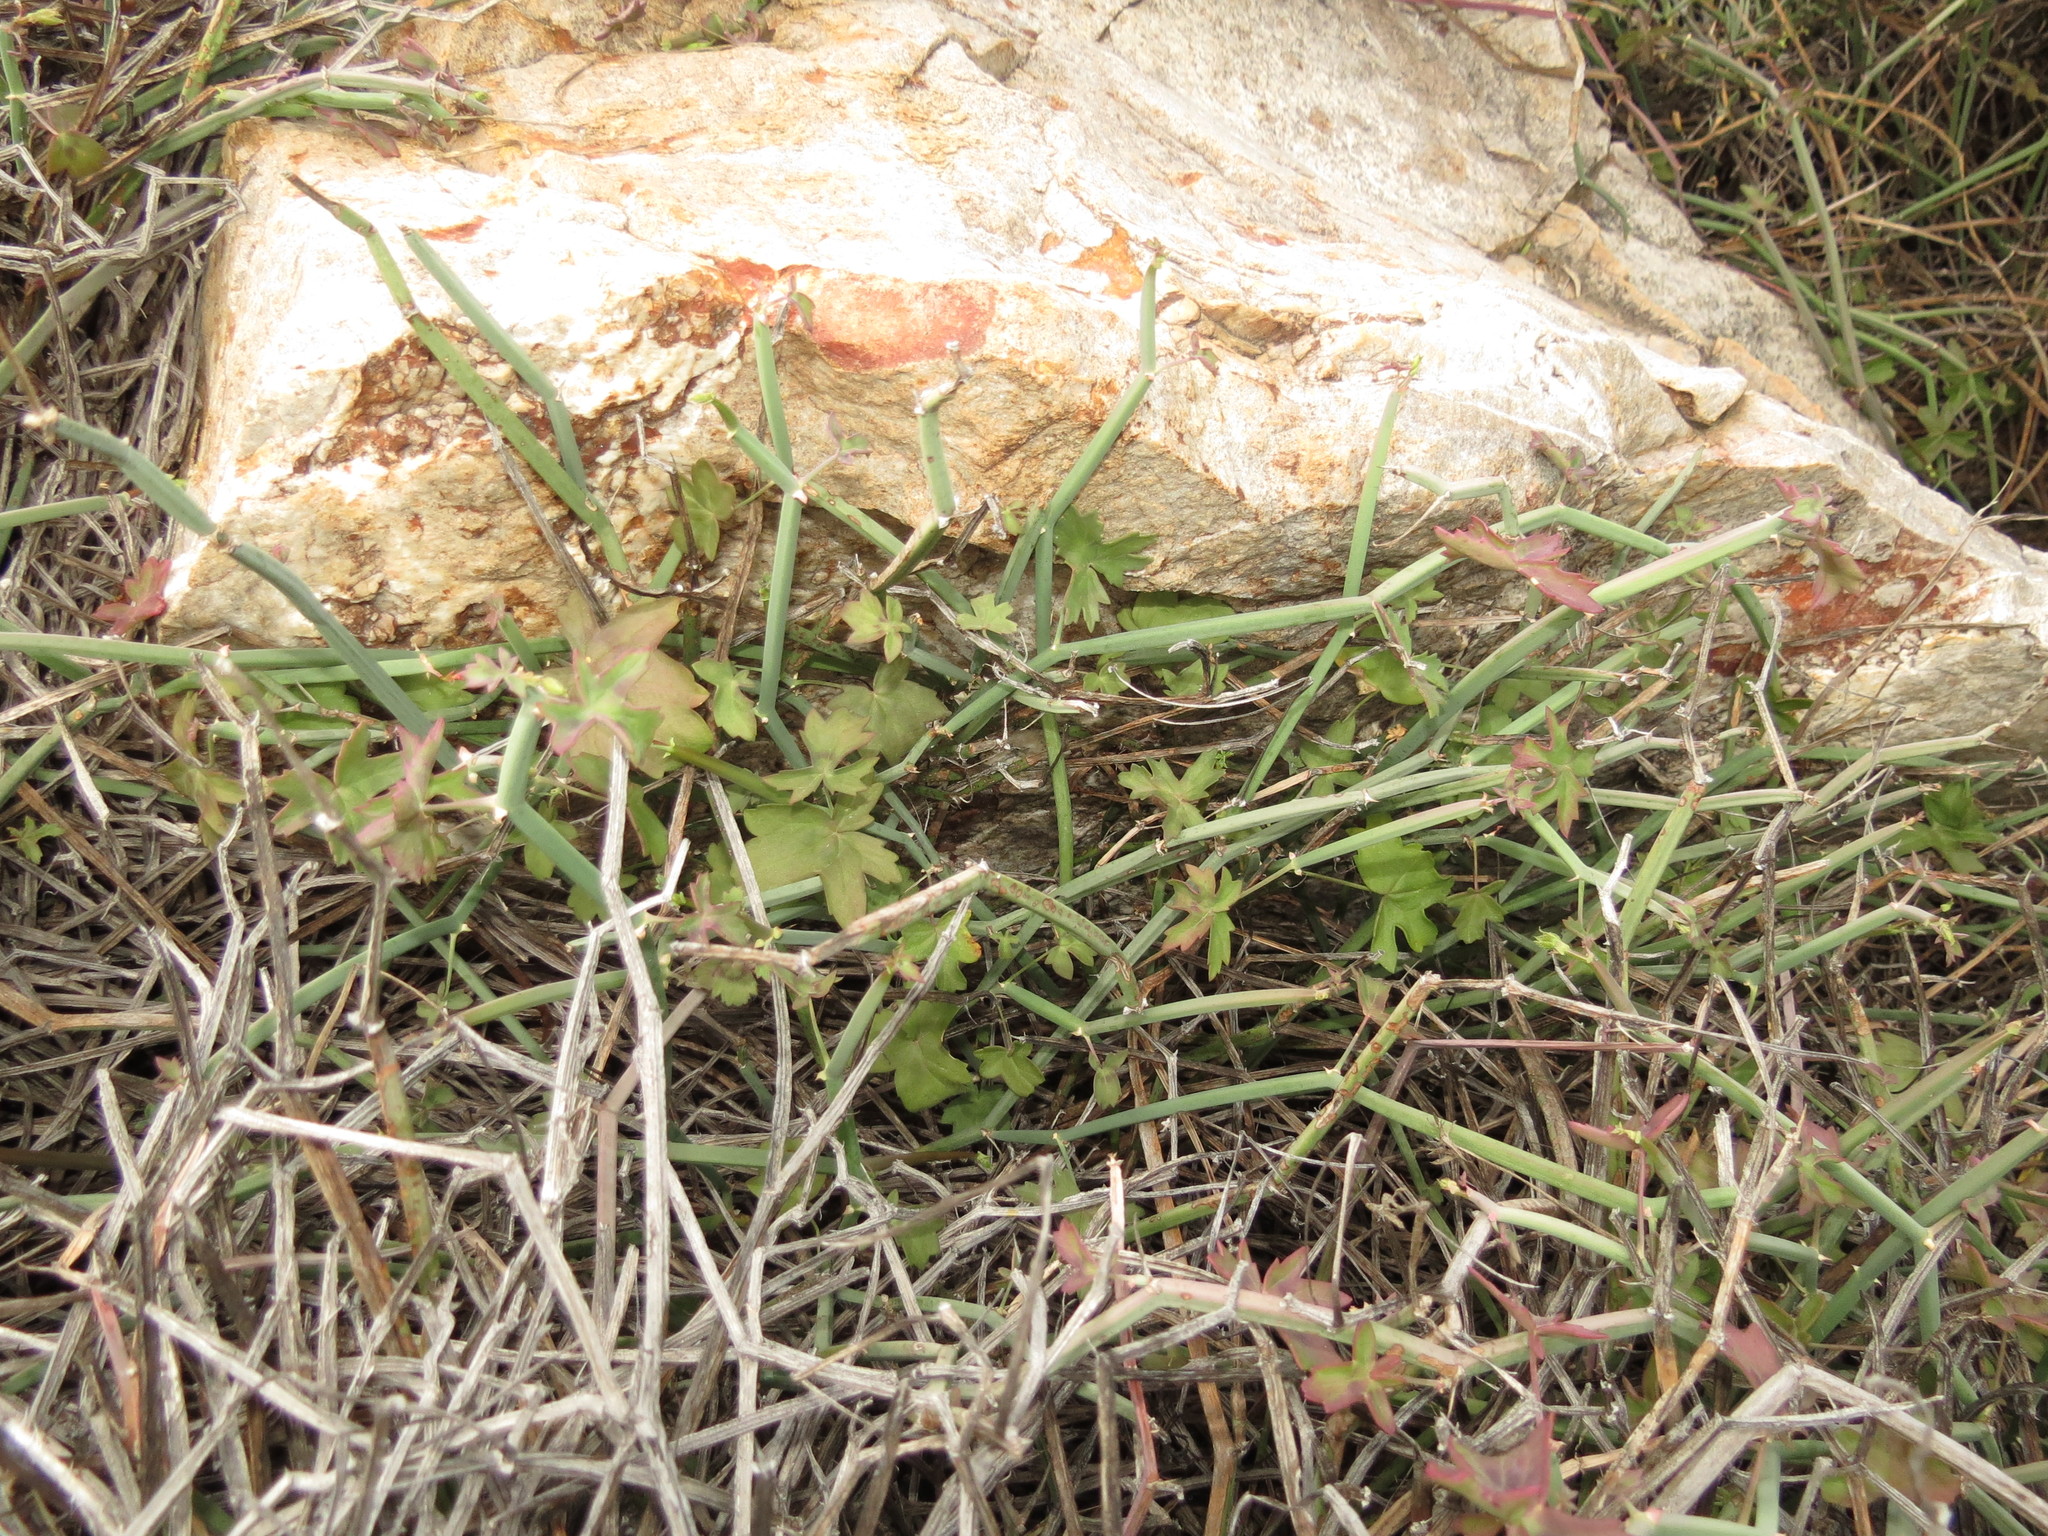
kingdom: Plantae
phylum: Tracheophyta
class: Magnoliopsida
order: Geraniales
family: Geraniaceae
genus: Pelargonium
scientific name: Pelargonium tetragonum
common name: Square-stack crane's-bill
